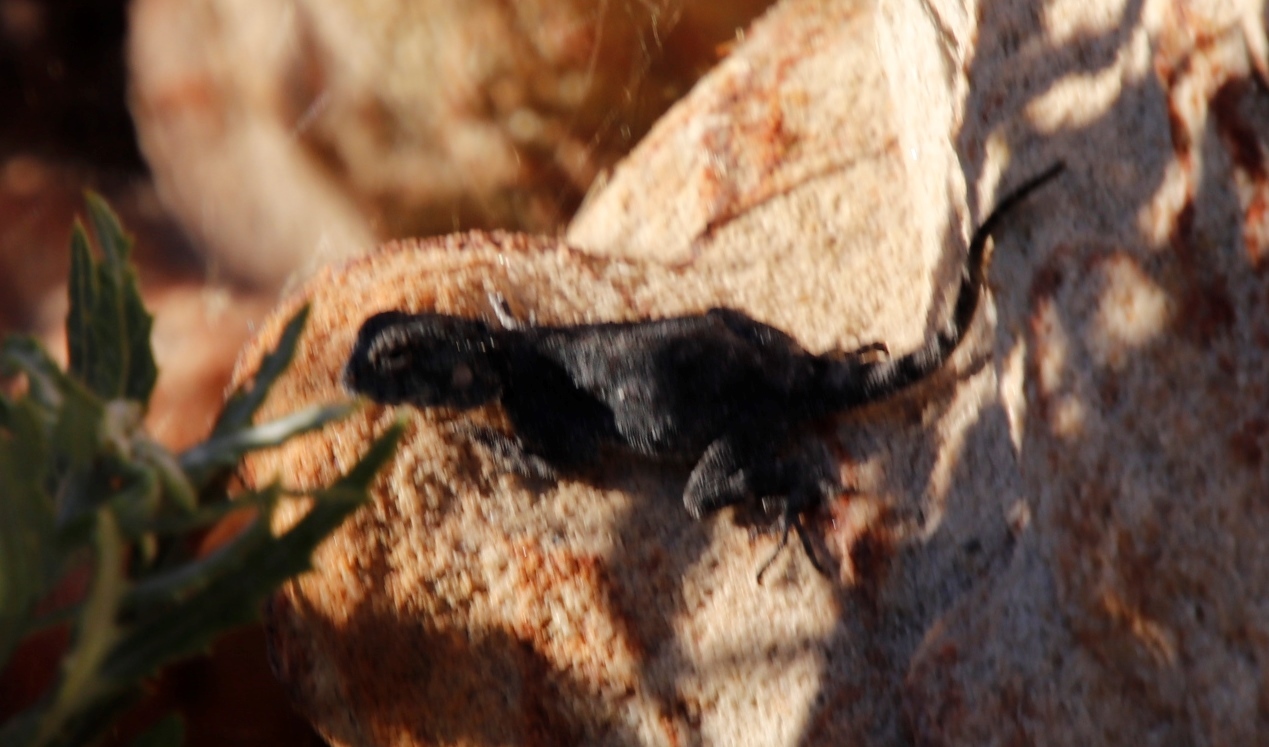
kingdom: Animalia
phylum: Chordata
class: Squamata
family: Agamidae
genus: Agama
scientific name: Agama atra
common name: Southern african rock agama
